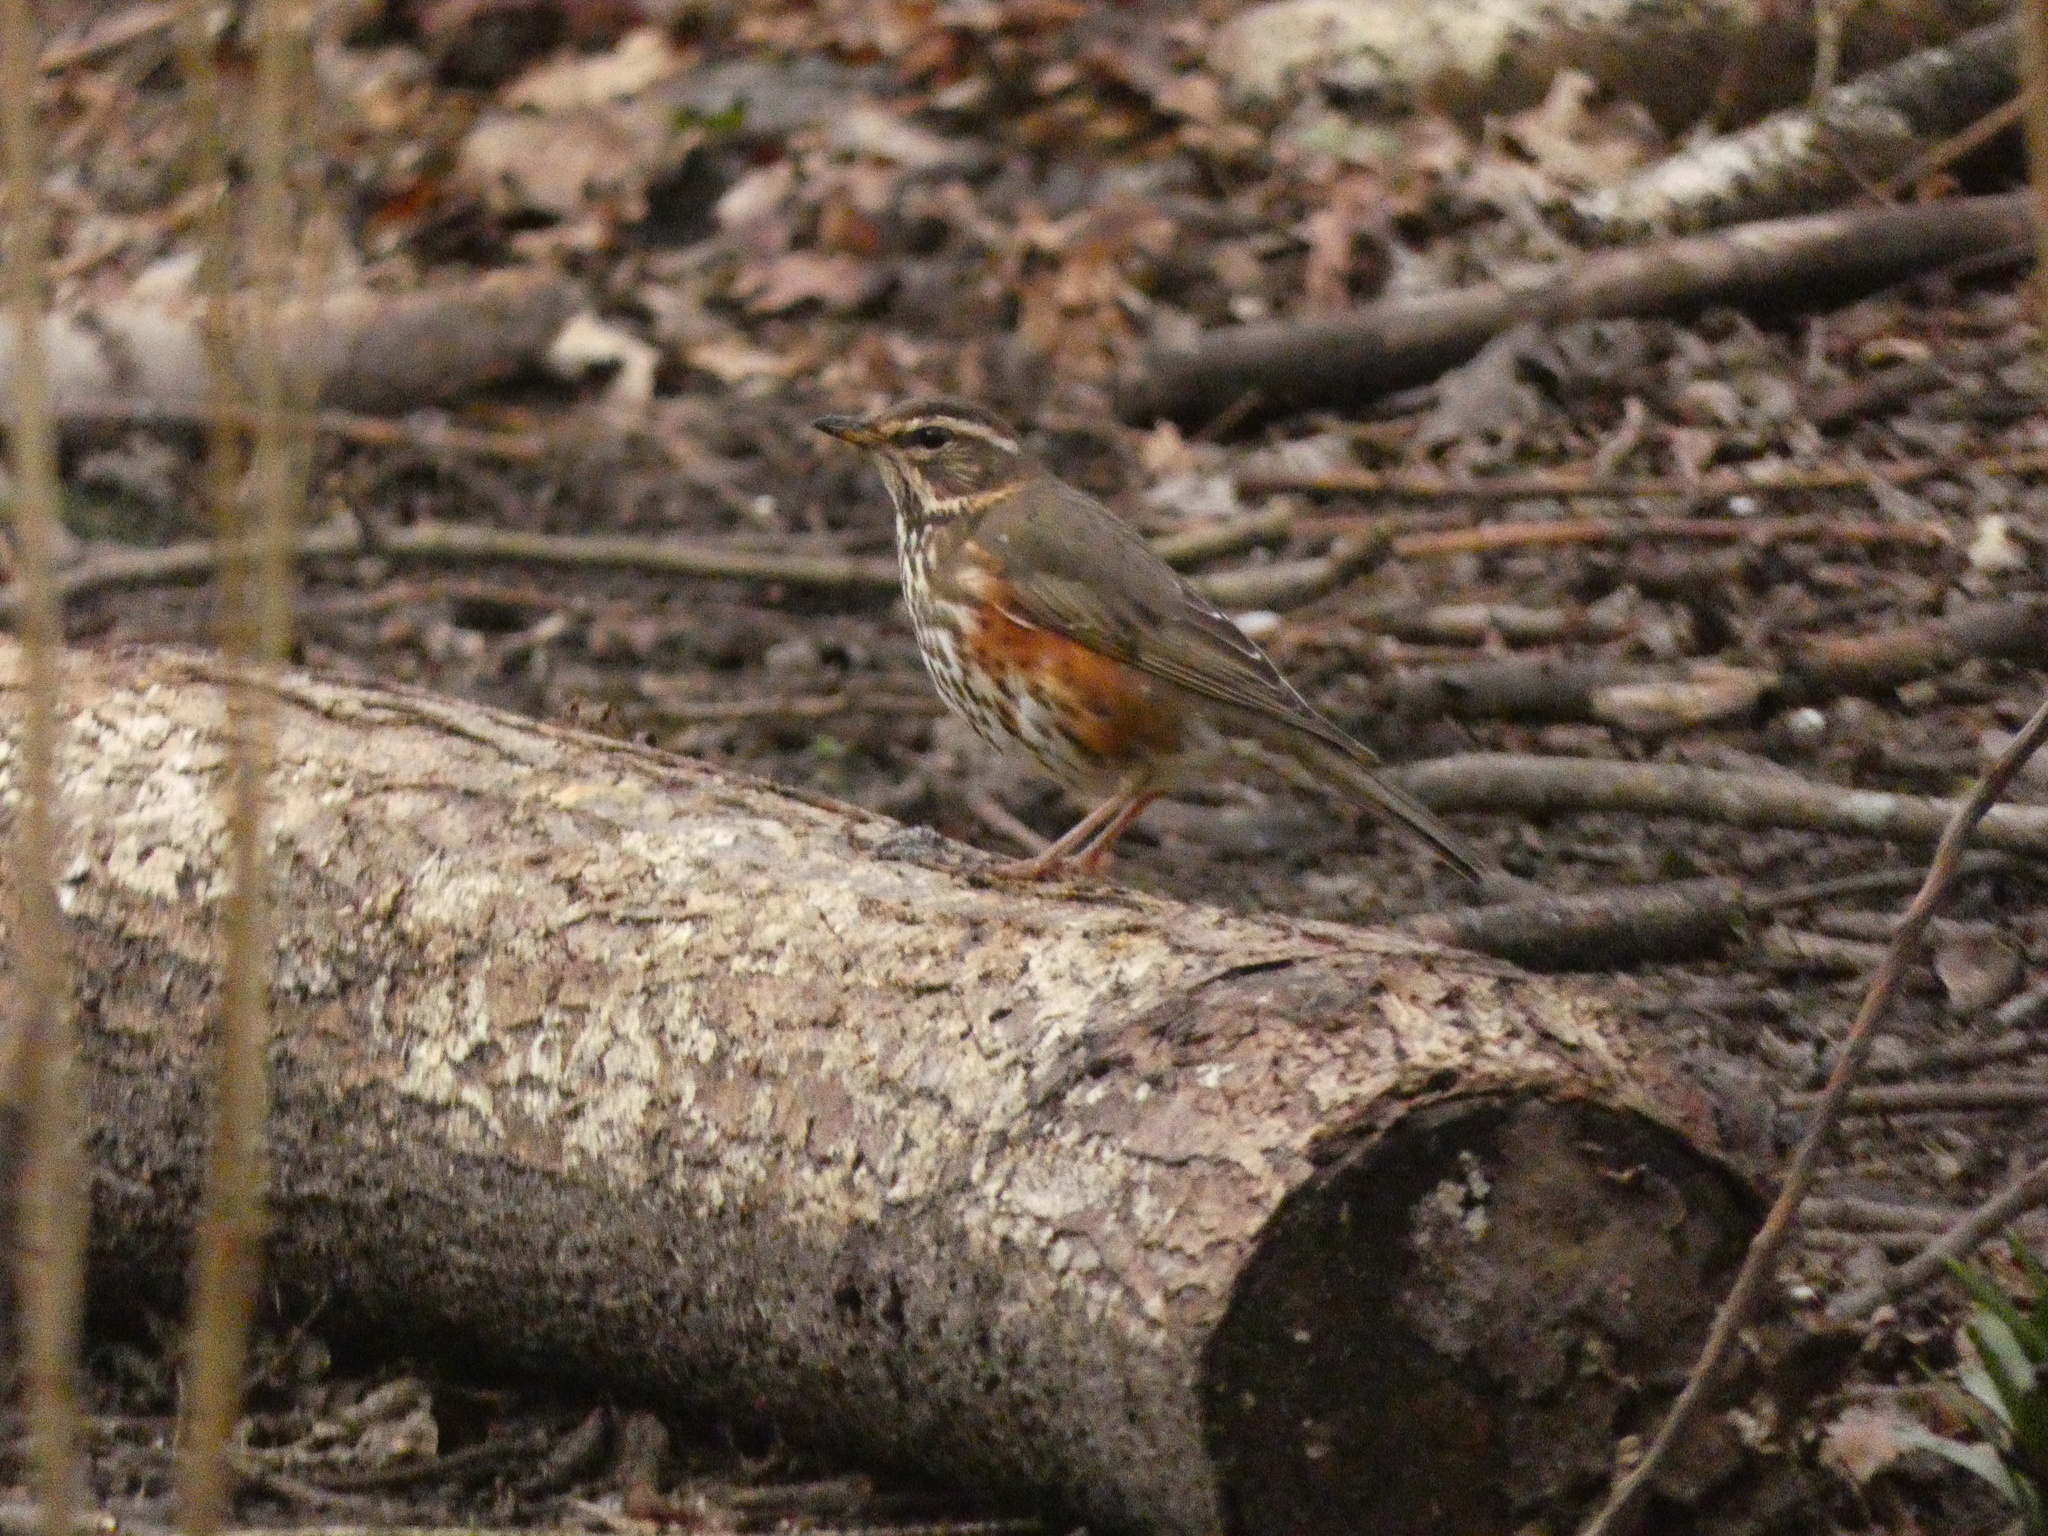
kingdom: Animalia
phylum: Chordata
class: Aves
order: Passeriformes
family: Turdidae
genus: Turdus
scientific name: Turdus iliacus
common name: Redwing
